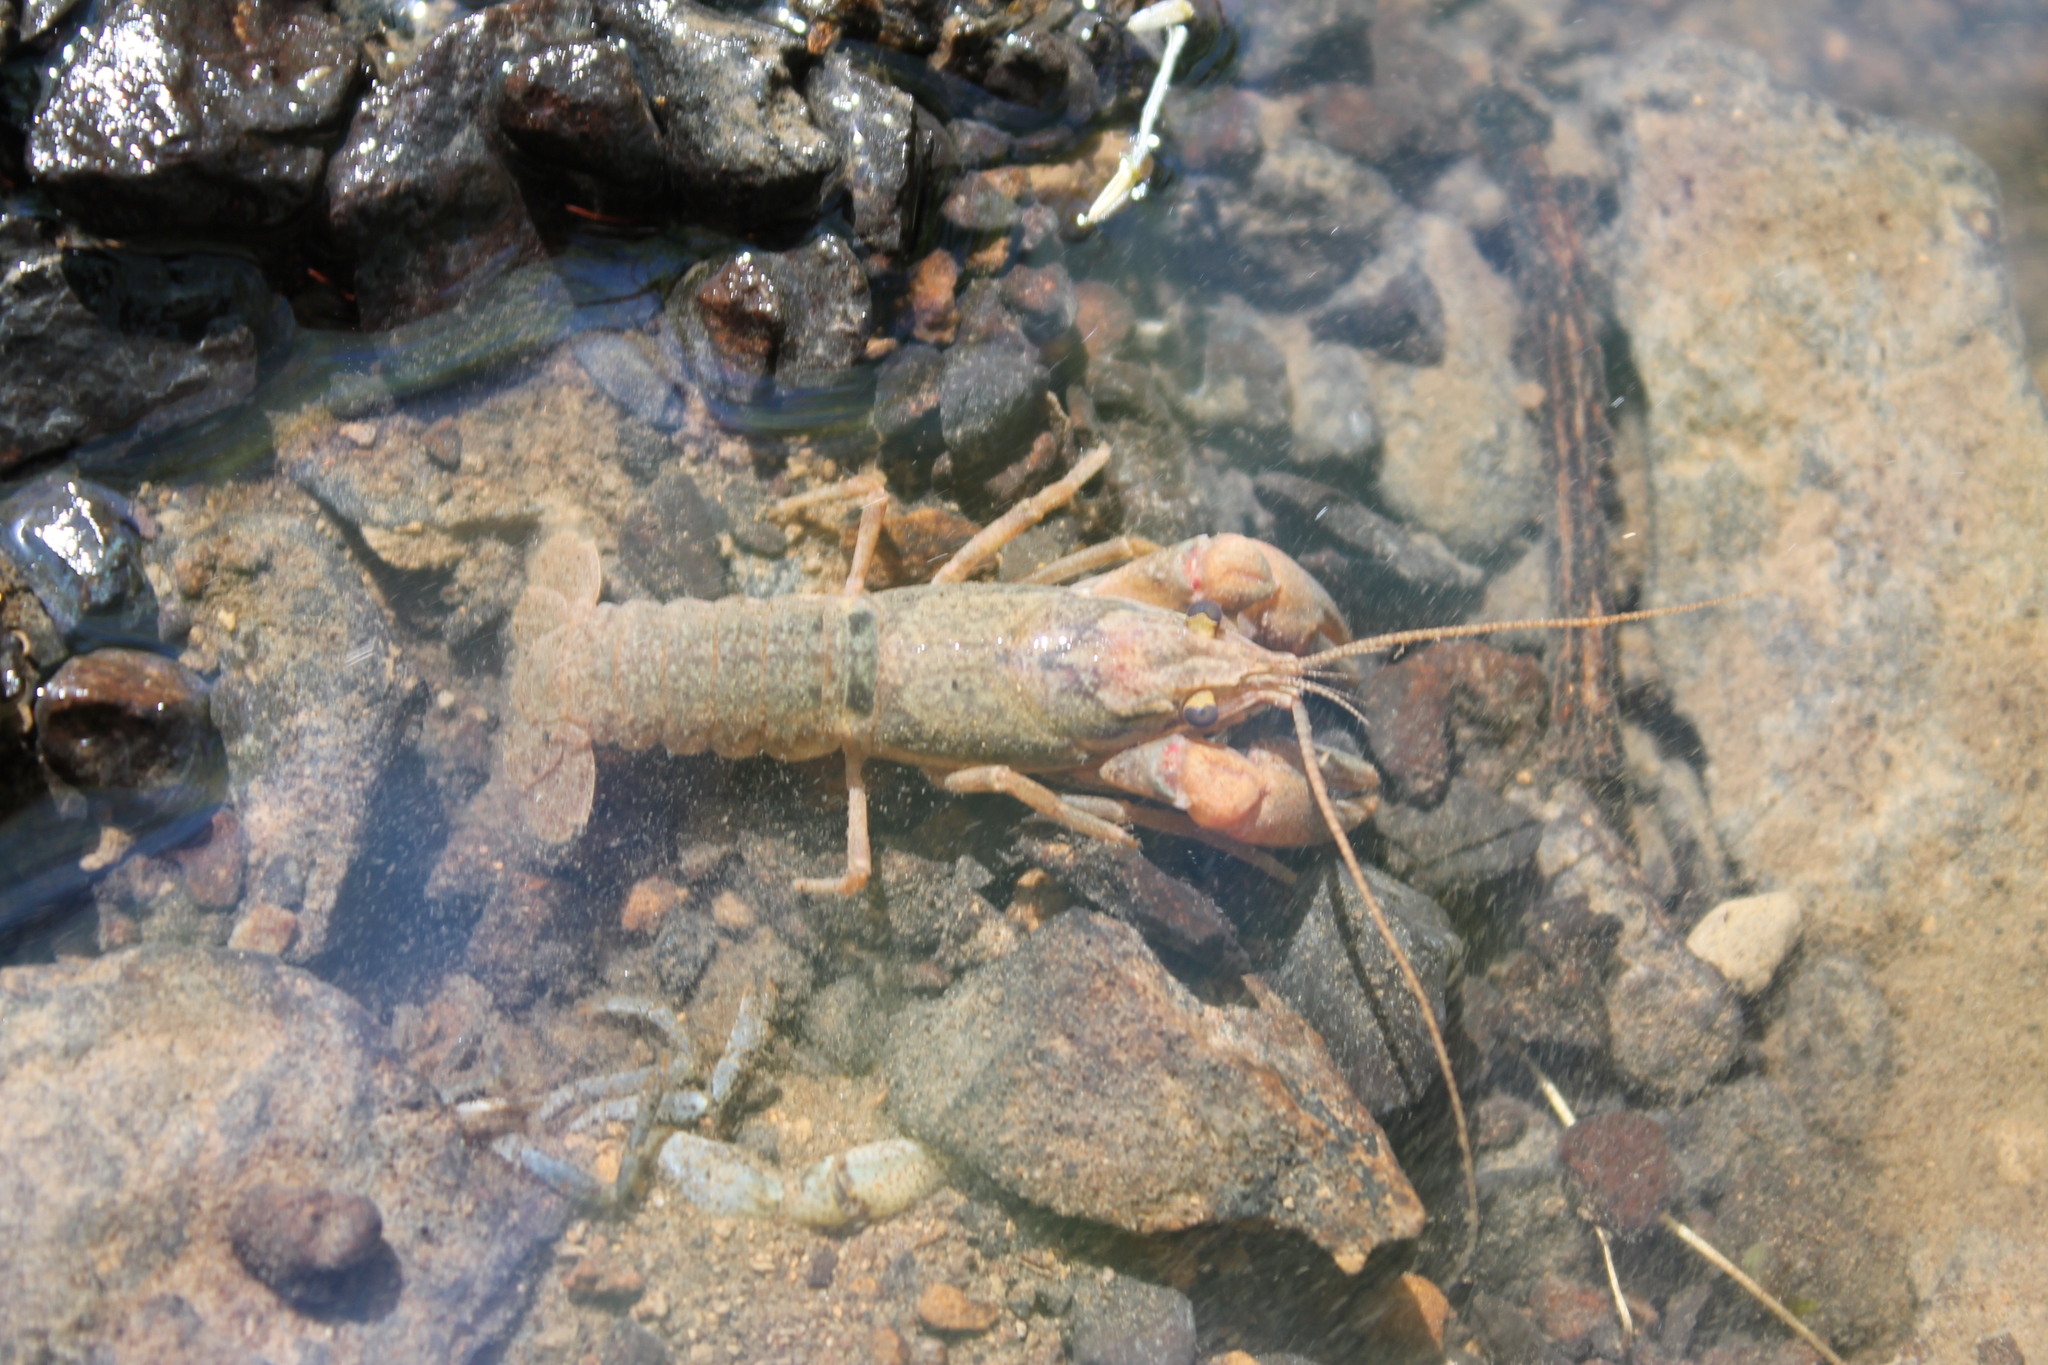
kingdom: Animalia
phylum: Arthropoda
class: Malacostraca
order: Decapoda
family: Cambaridae
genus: Faxonius
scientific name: Faxonius rhoadesi
